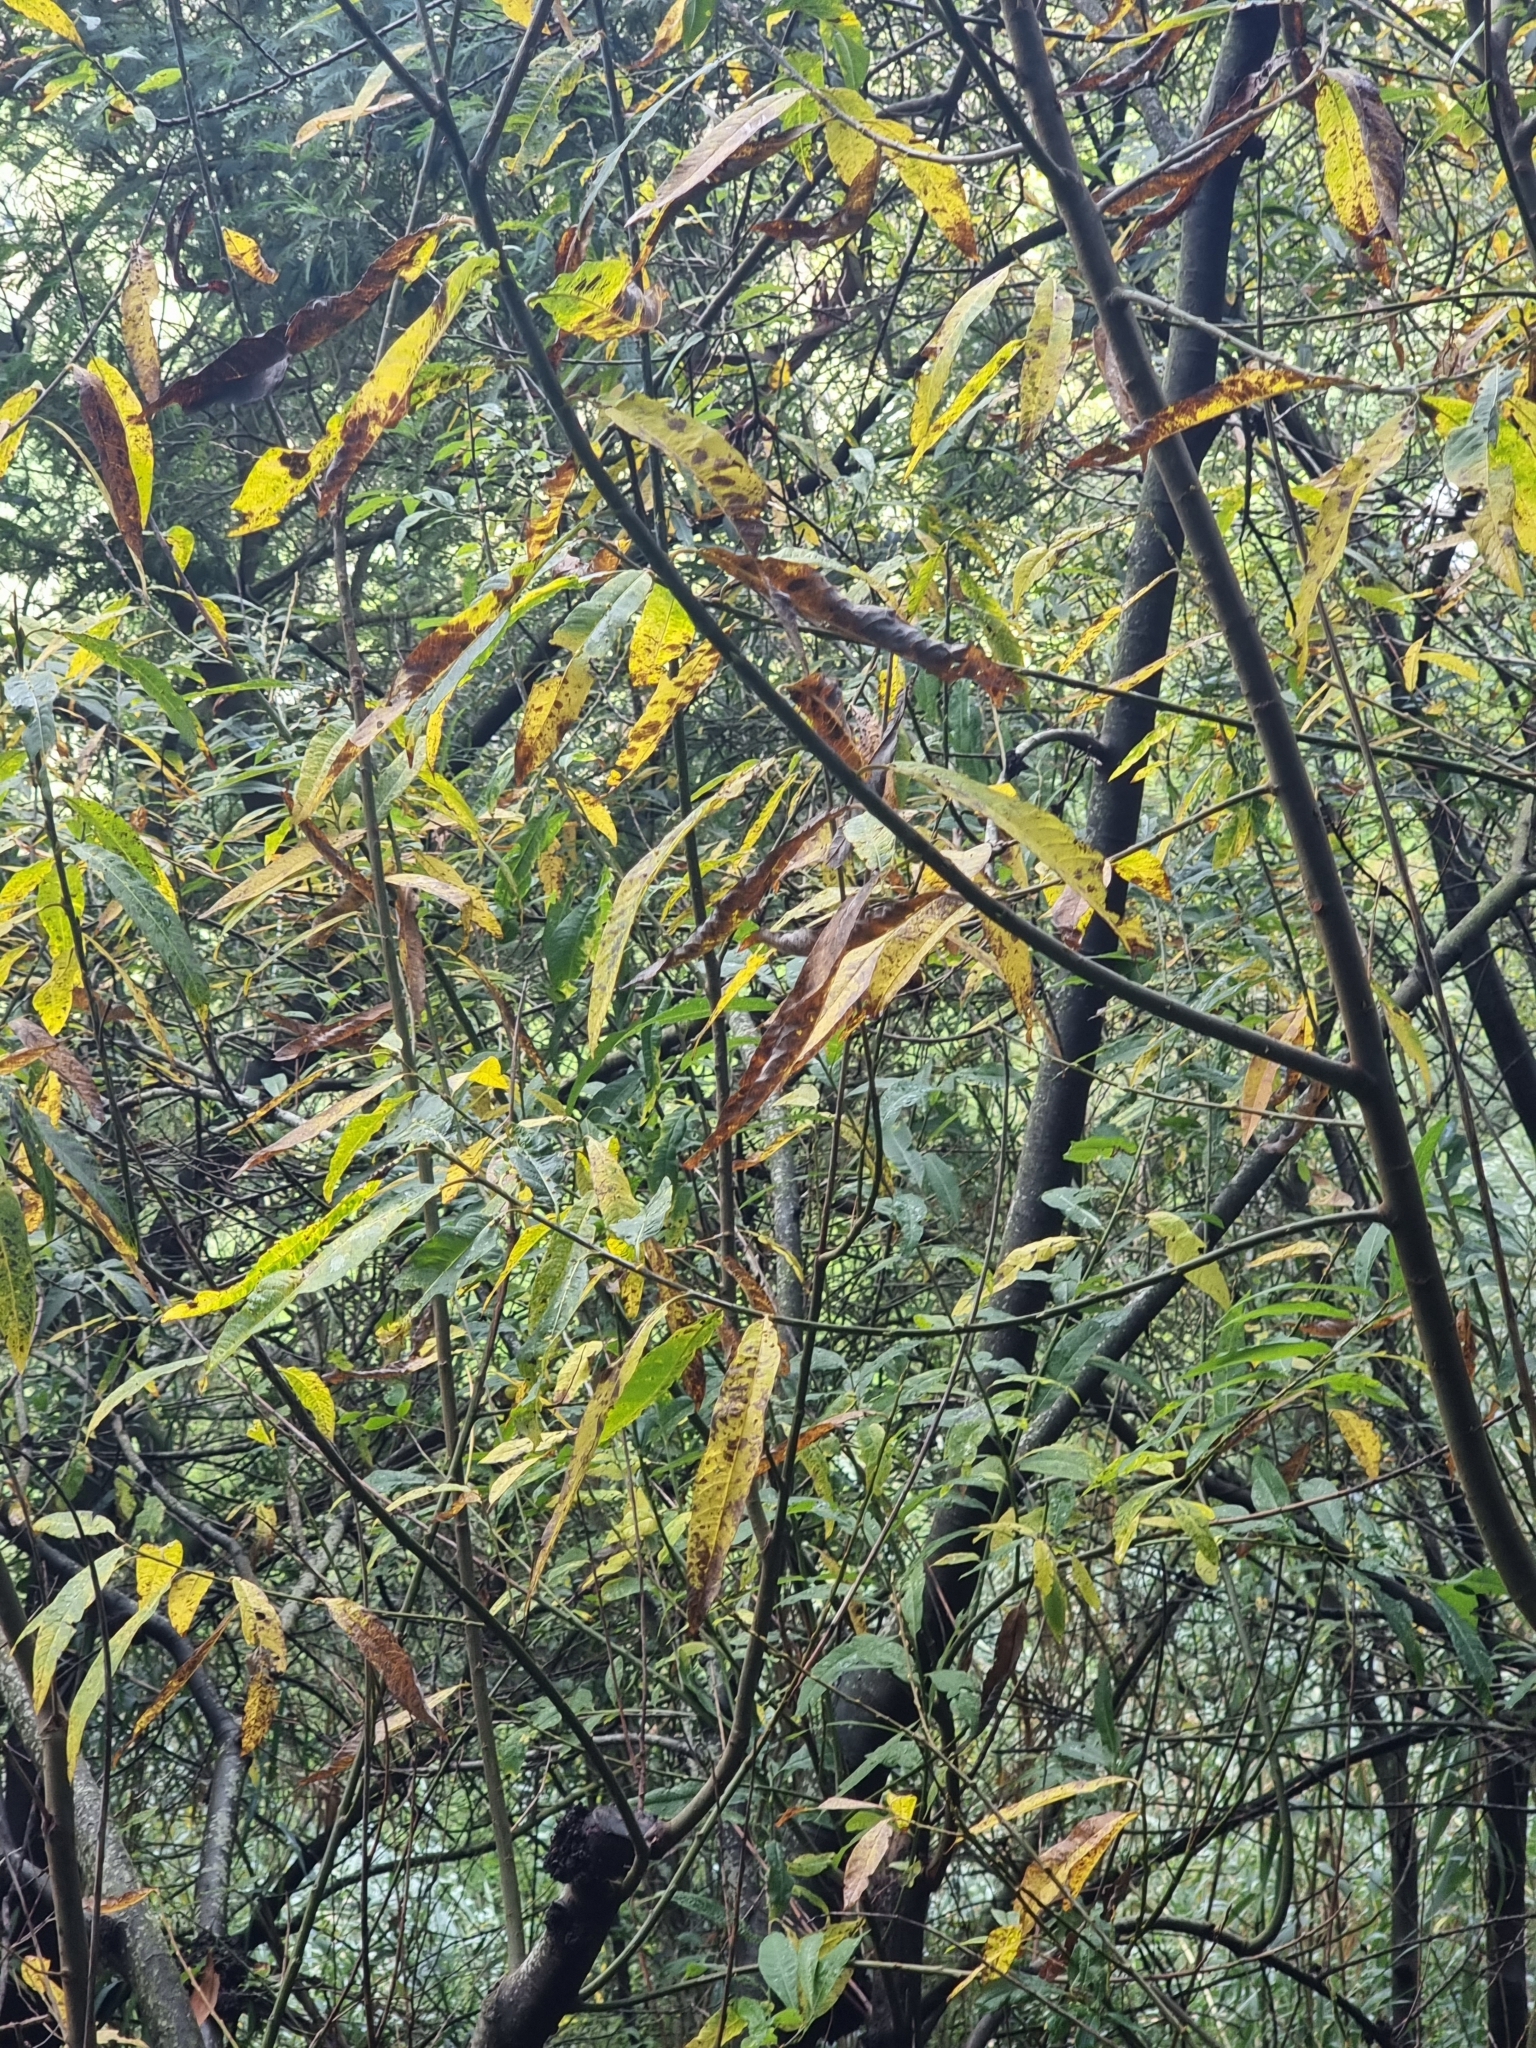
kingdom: Plantae
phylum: Tracheophyta
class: Magnoliopsida
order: Malpighiales
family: Salicaceae
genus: Salix
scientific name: Salix canariensis
